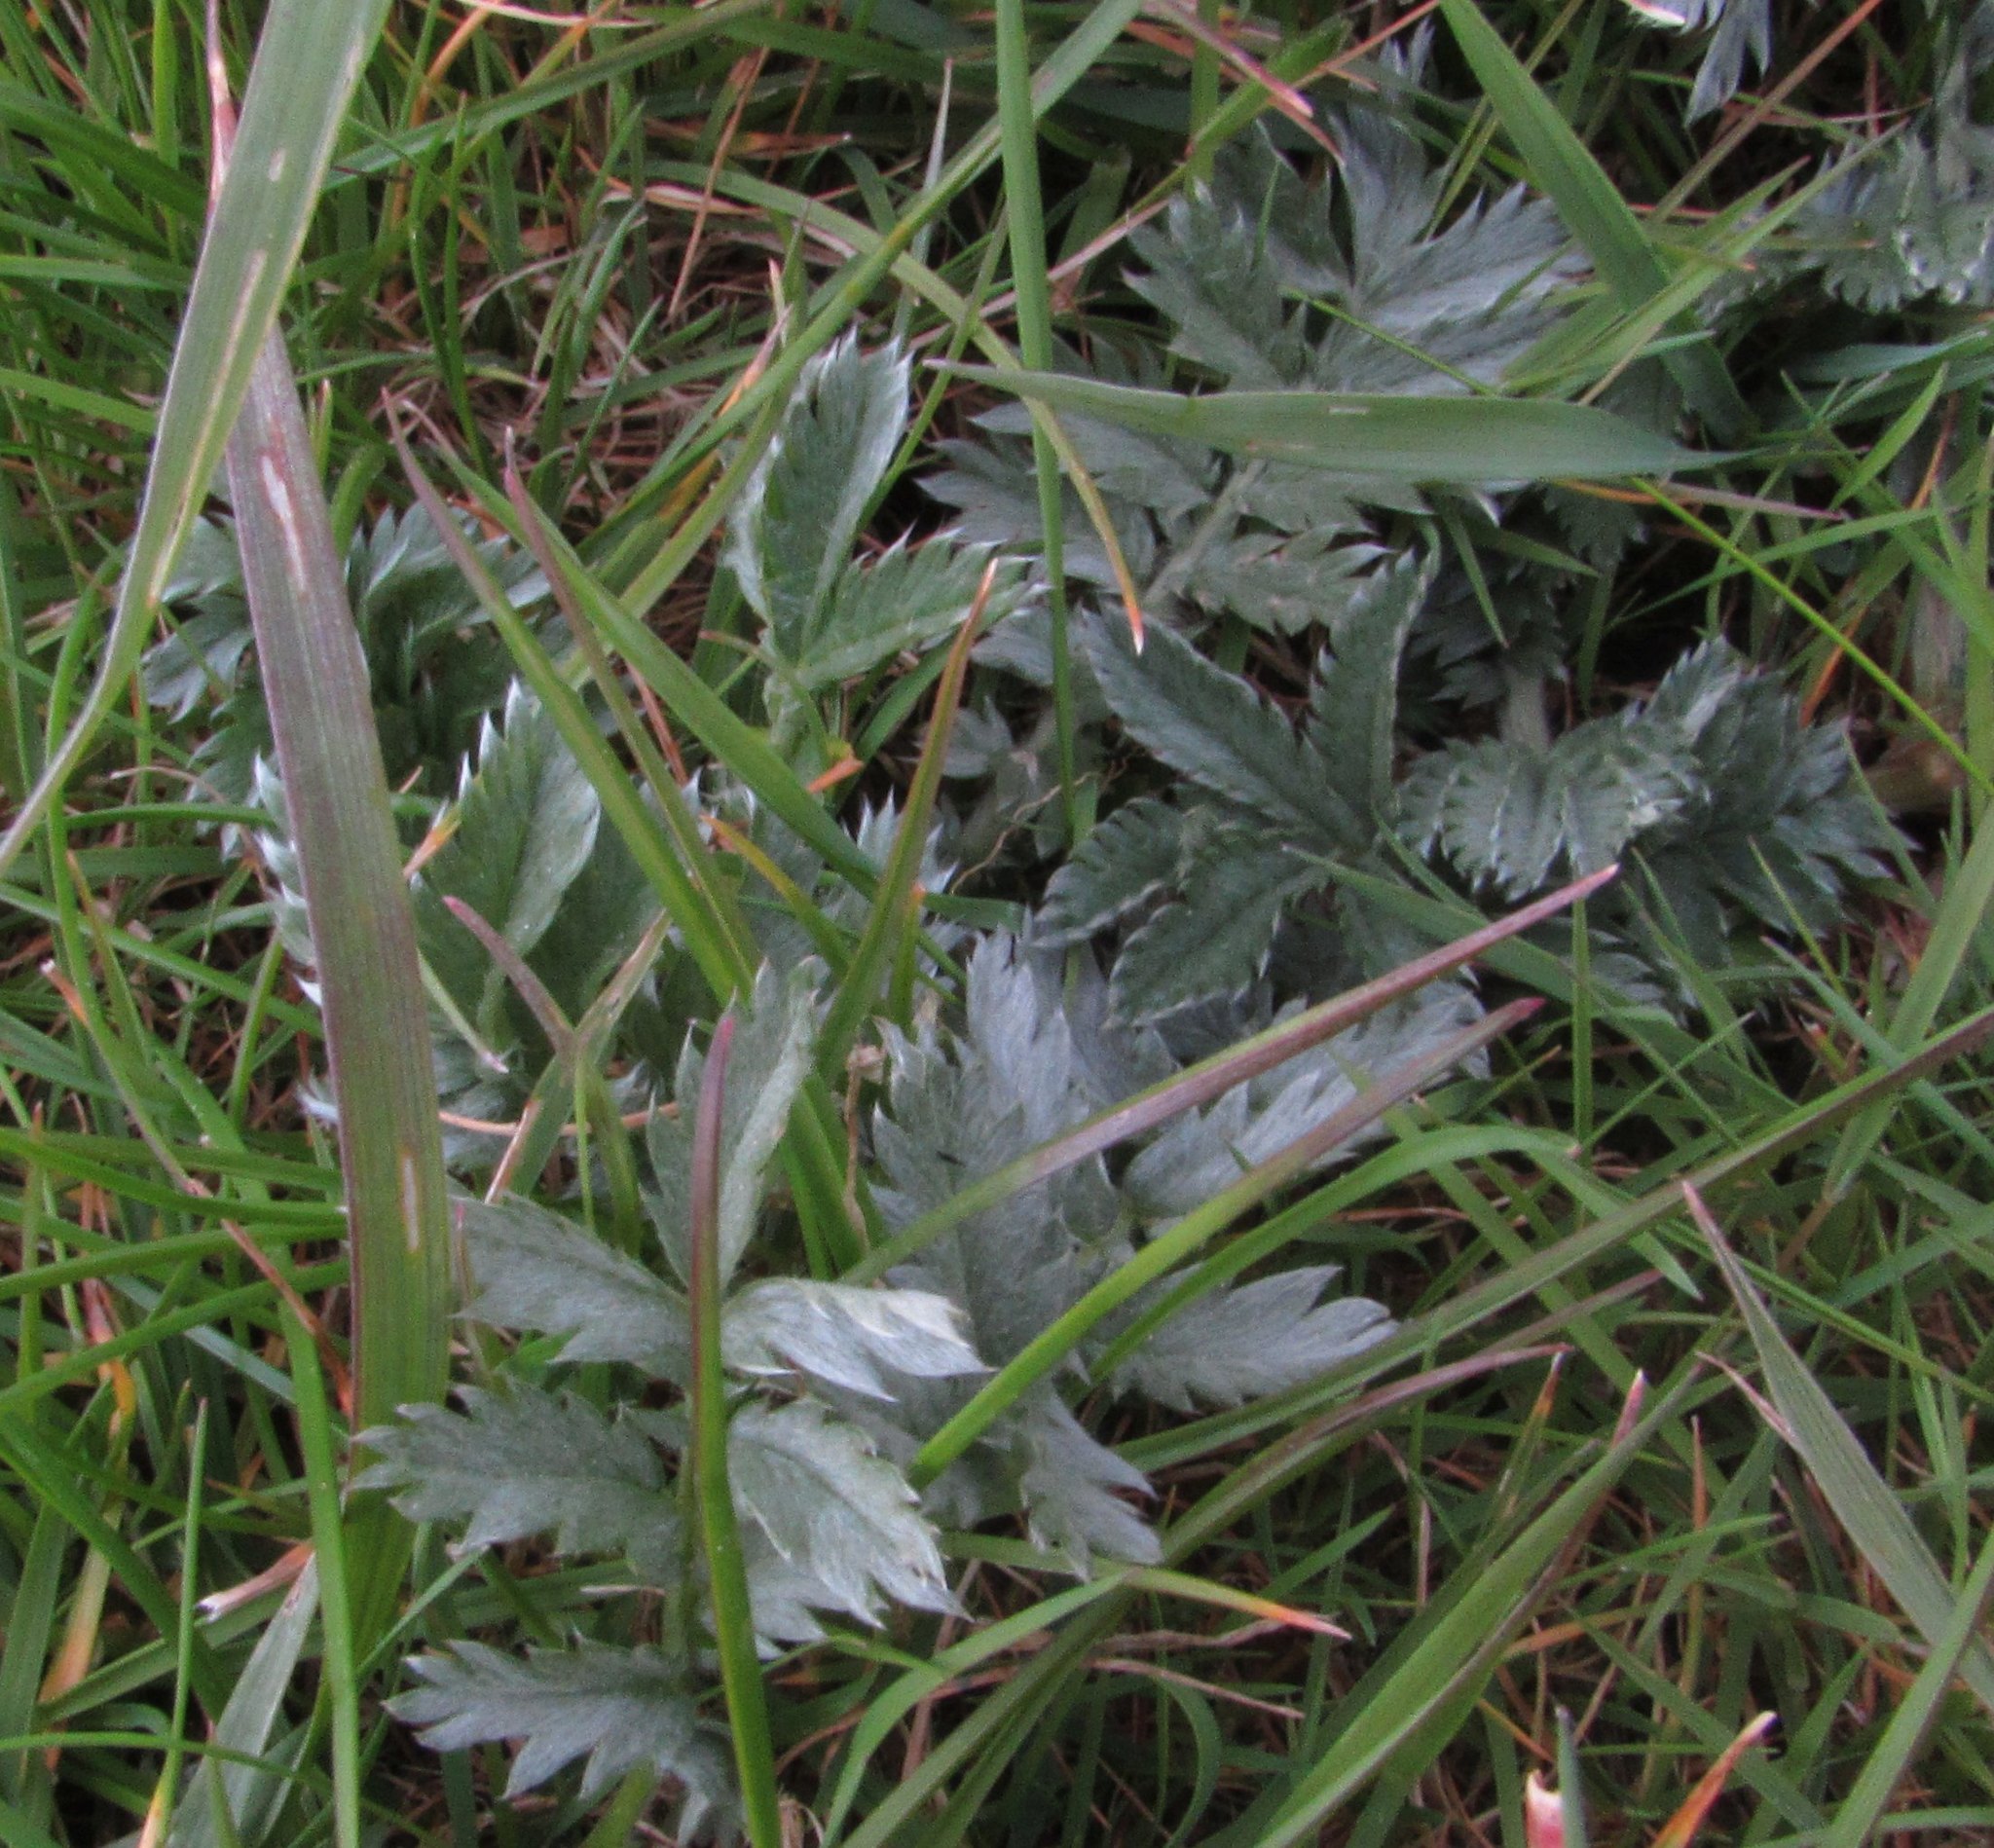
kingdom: Plantae
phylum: Tracheophyta
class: Magnoliopsida
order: Rosales
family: Rosaceae
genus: Argentina
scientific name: Argentina anserina
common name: Common silverweed
